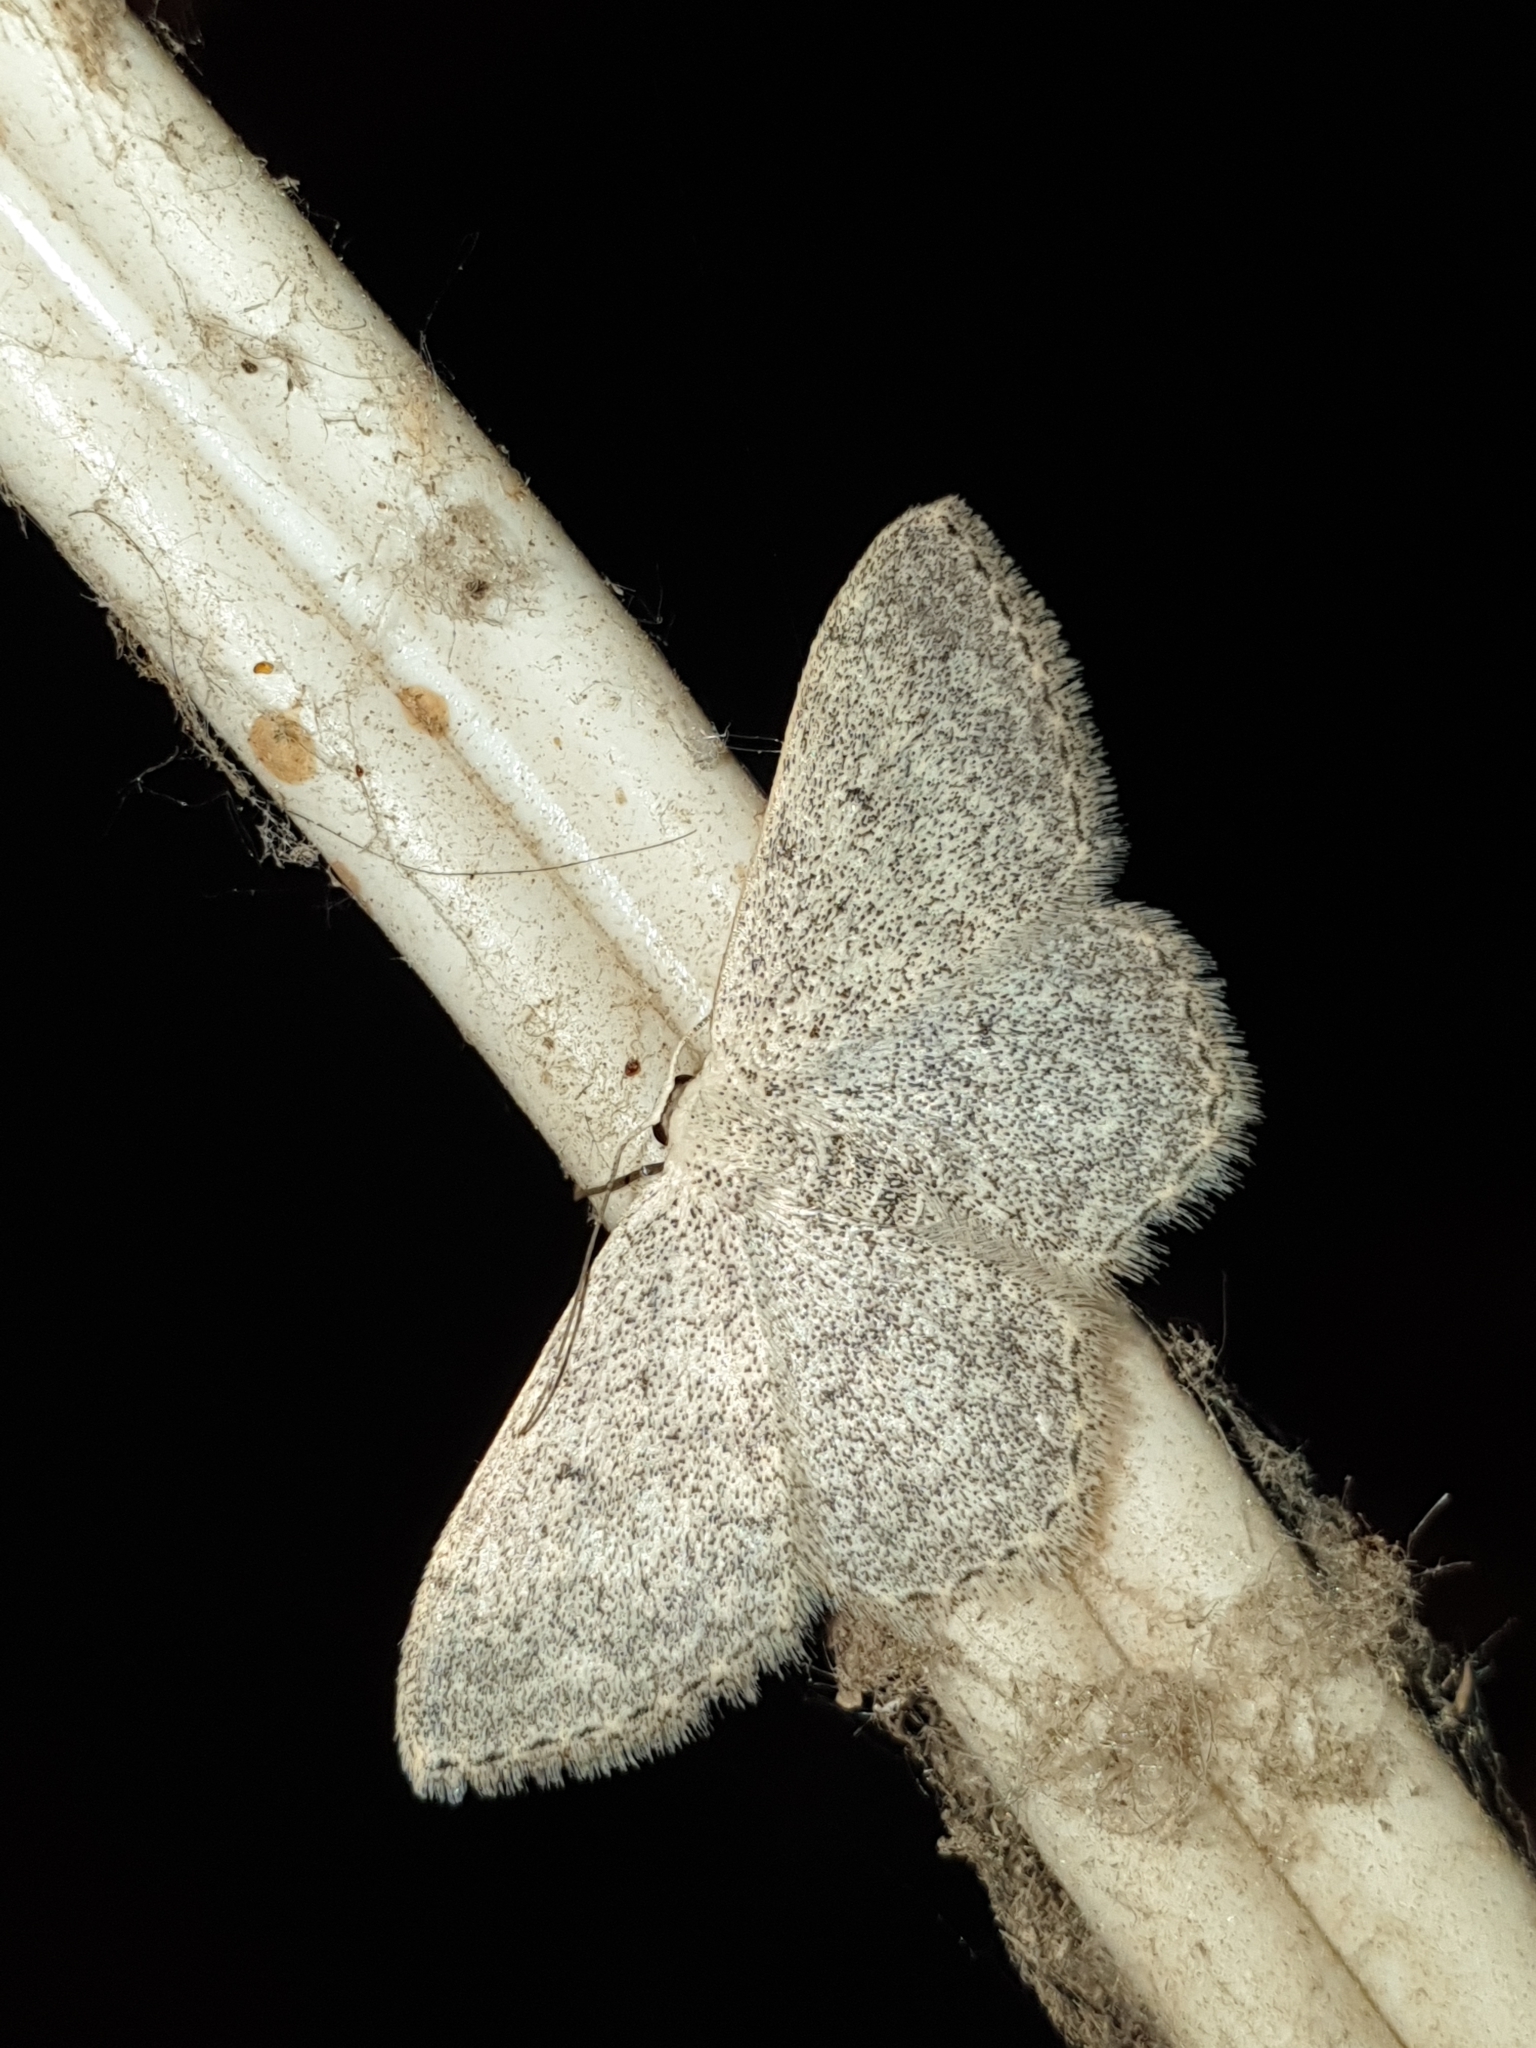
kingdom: Animalia
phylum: Arthropoda
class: Insecta
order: Lepidoptera
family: Geometridae
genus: Scopula
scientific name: Scopula marginepunctata
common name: Mullein wave
